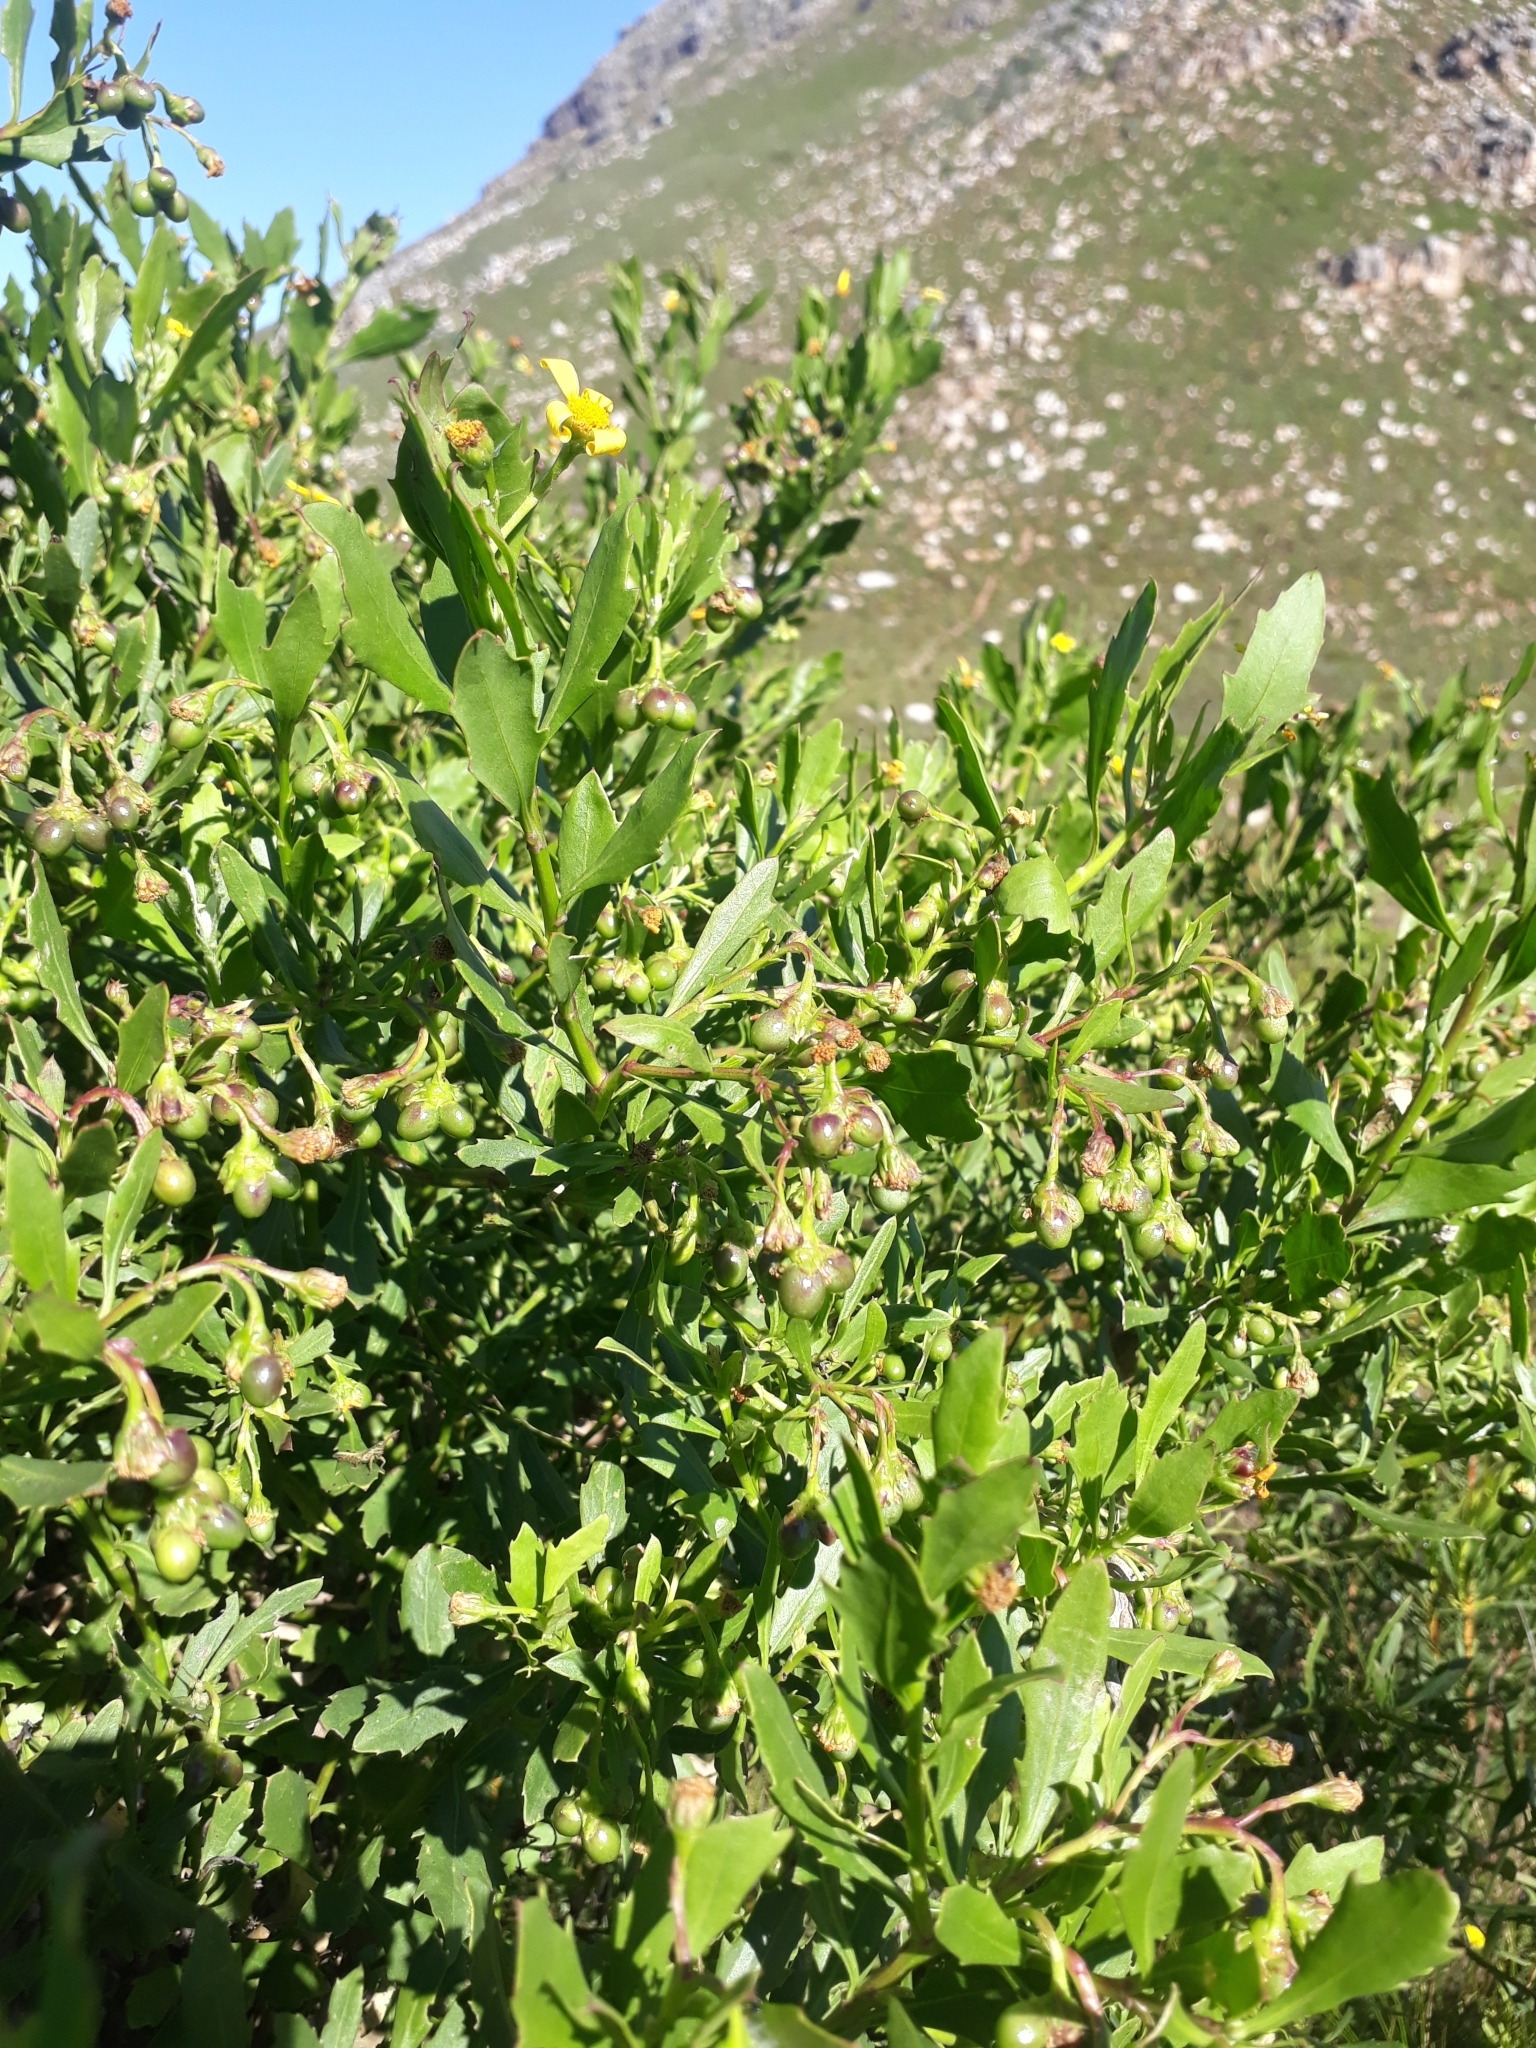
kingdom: Plantae
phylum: Tracheophyta
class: Magnoliopsida
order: Asterales
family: Asteraceae
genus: Osteospermum
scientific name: Osteospermum moniliferum
